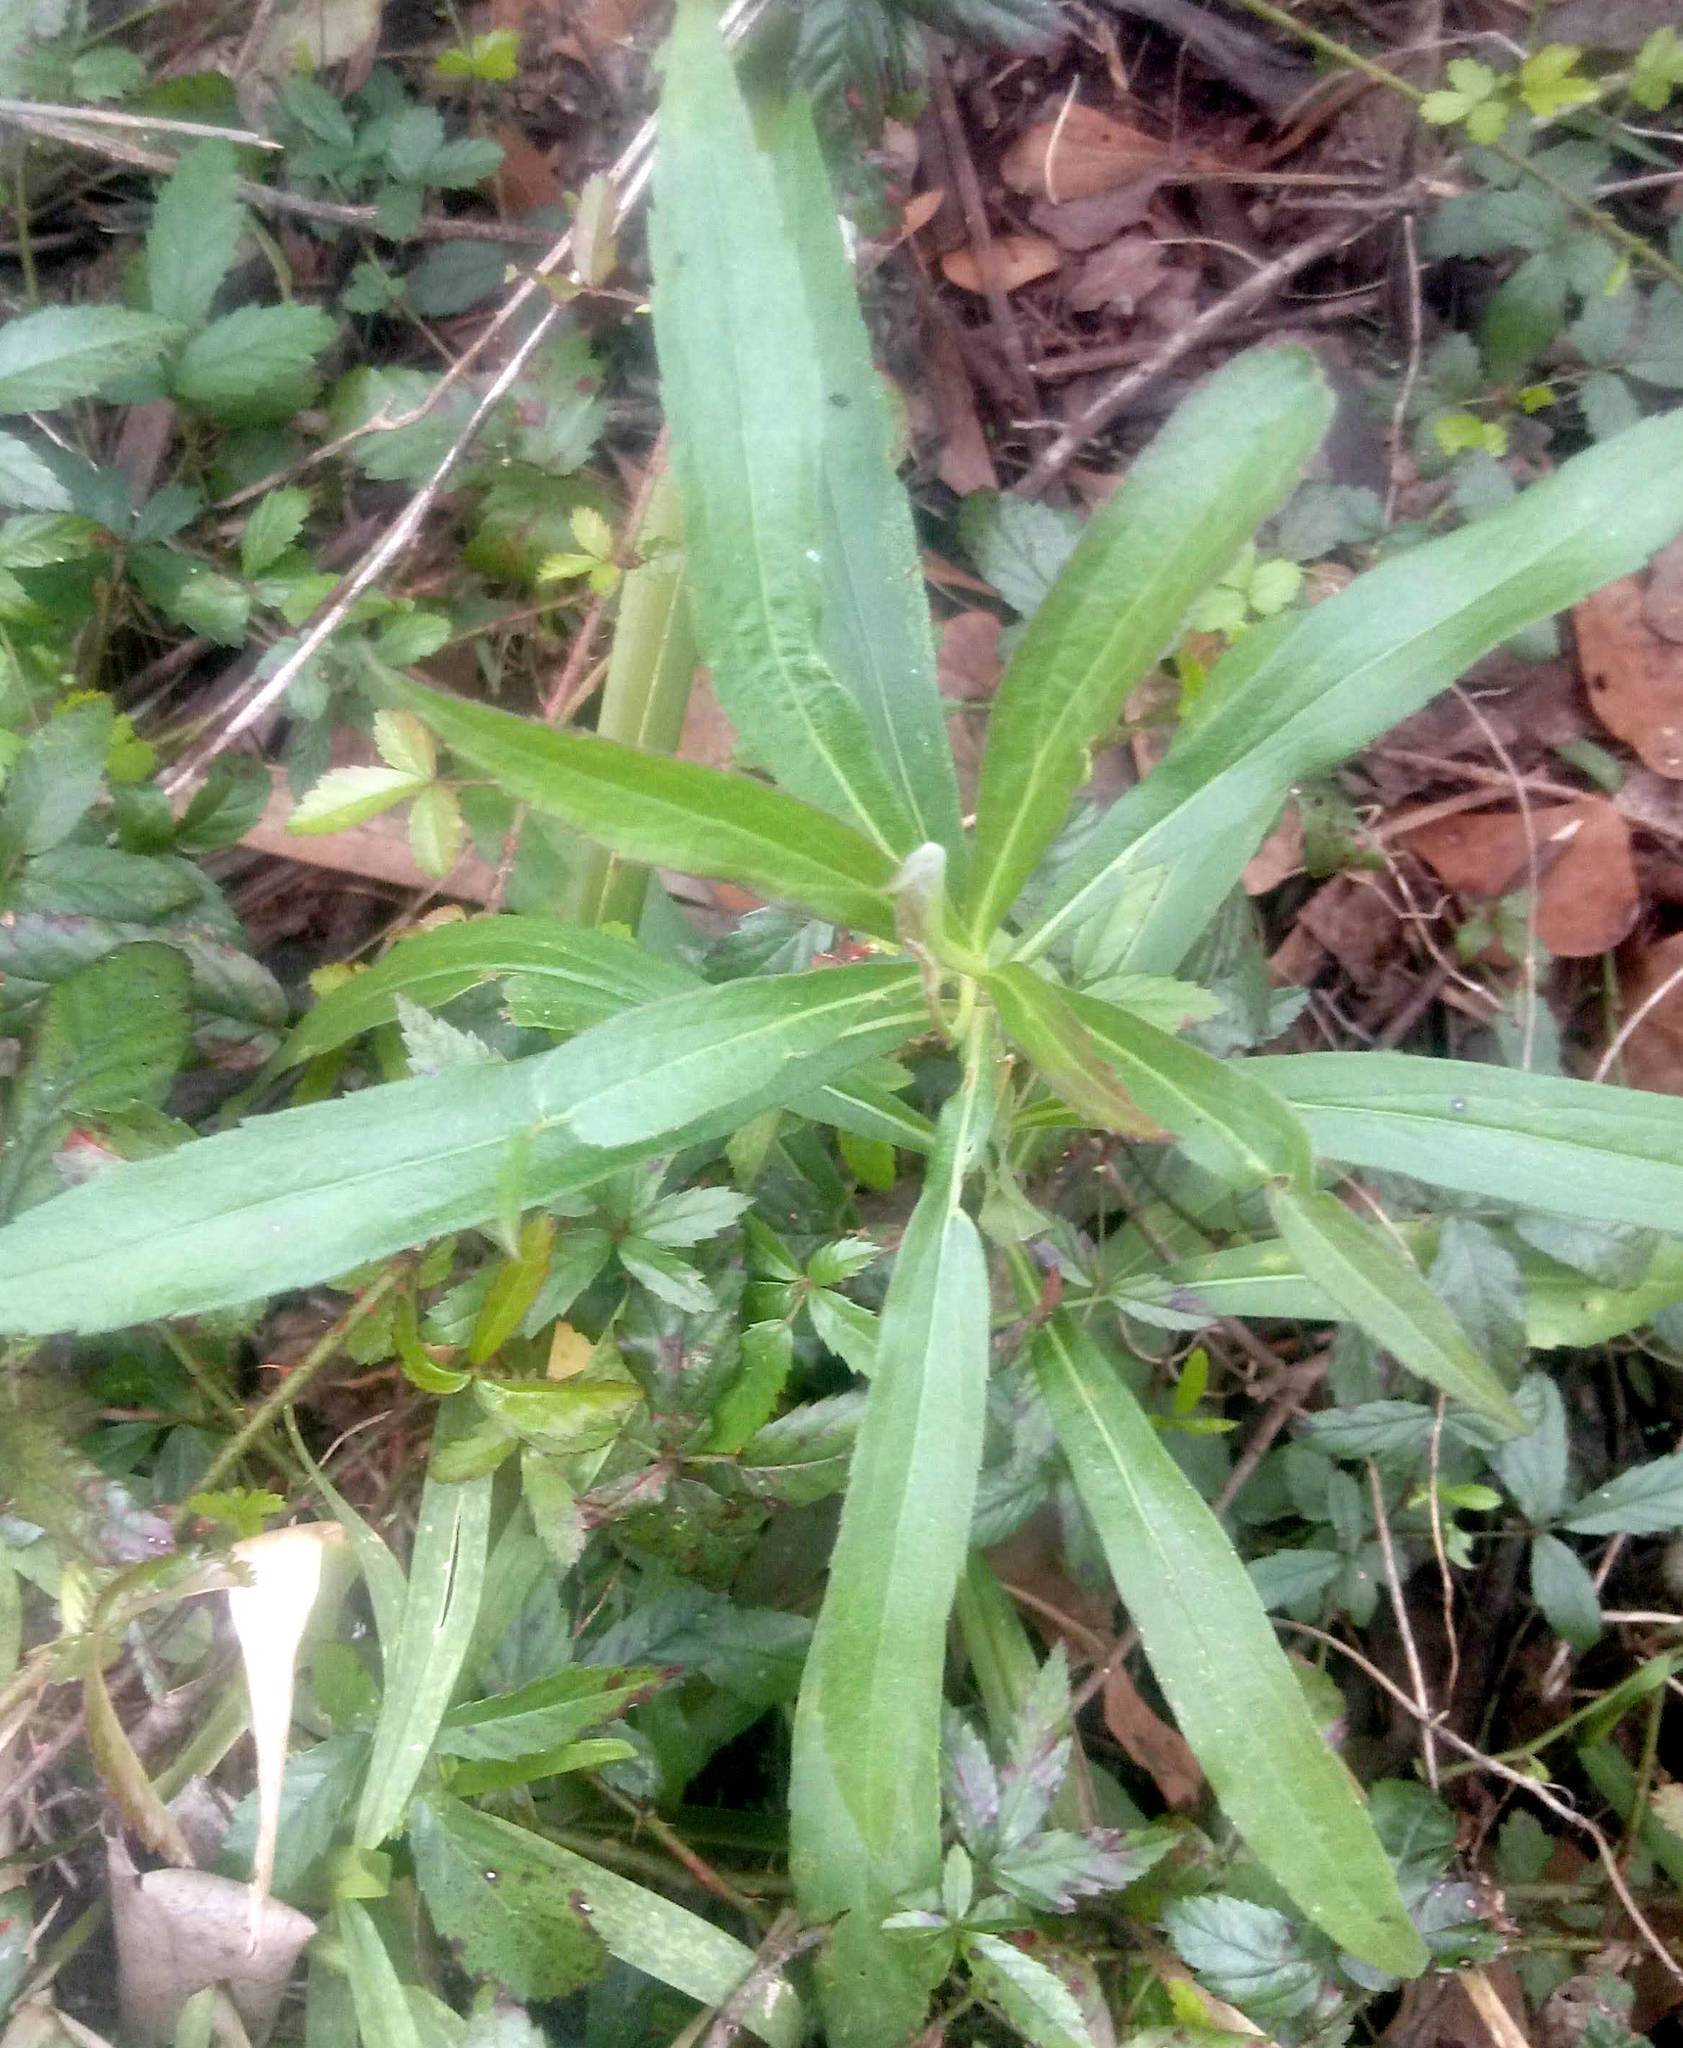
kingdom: Plantae
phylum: Tracheophyta
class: Magnoliopsida
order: Asterales
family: Asteraceae
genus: Solidago
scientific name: Solidago altissima
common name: Late goldenrod
